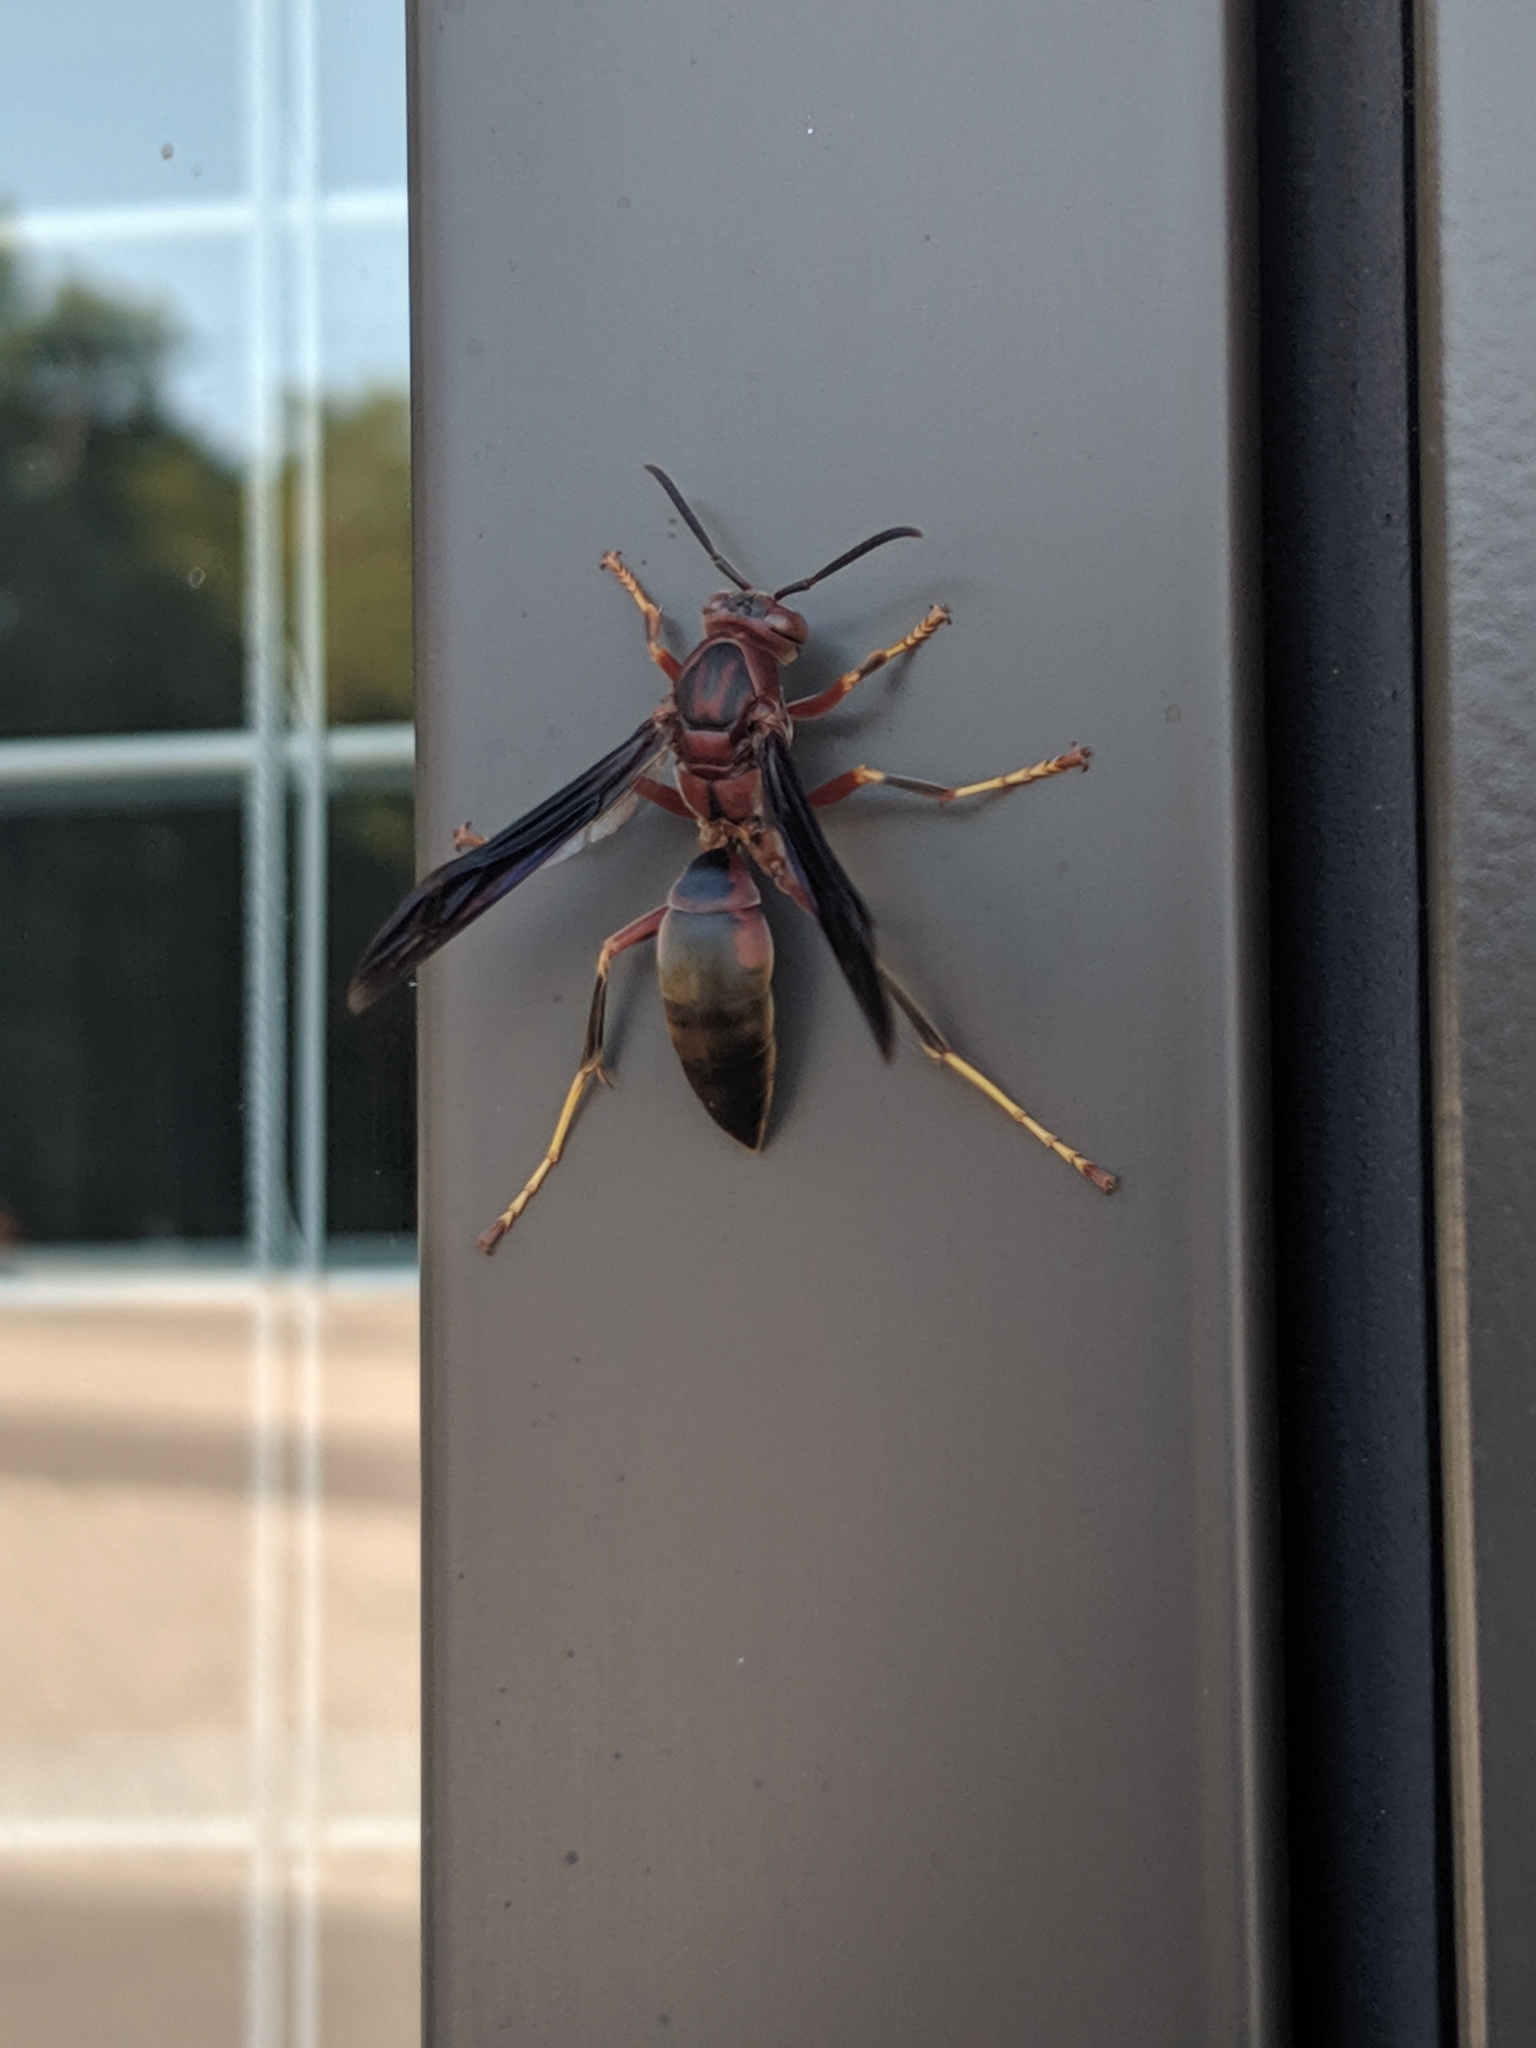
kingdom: Animalia
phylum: Arthropoda
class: Insecta
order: Hymenoptera
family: Eumenidae
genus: Polistes
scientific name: Polistes metricus
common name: Metric paper wasp
